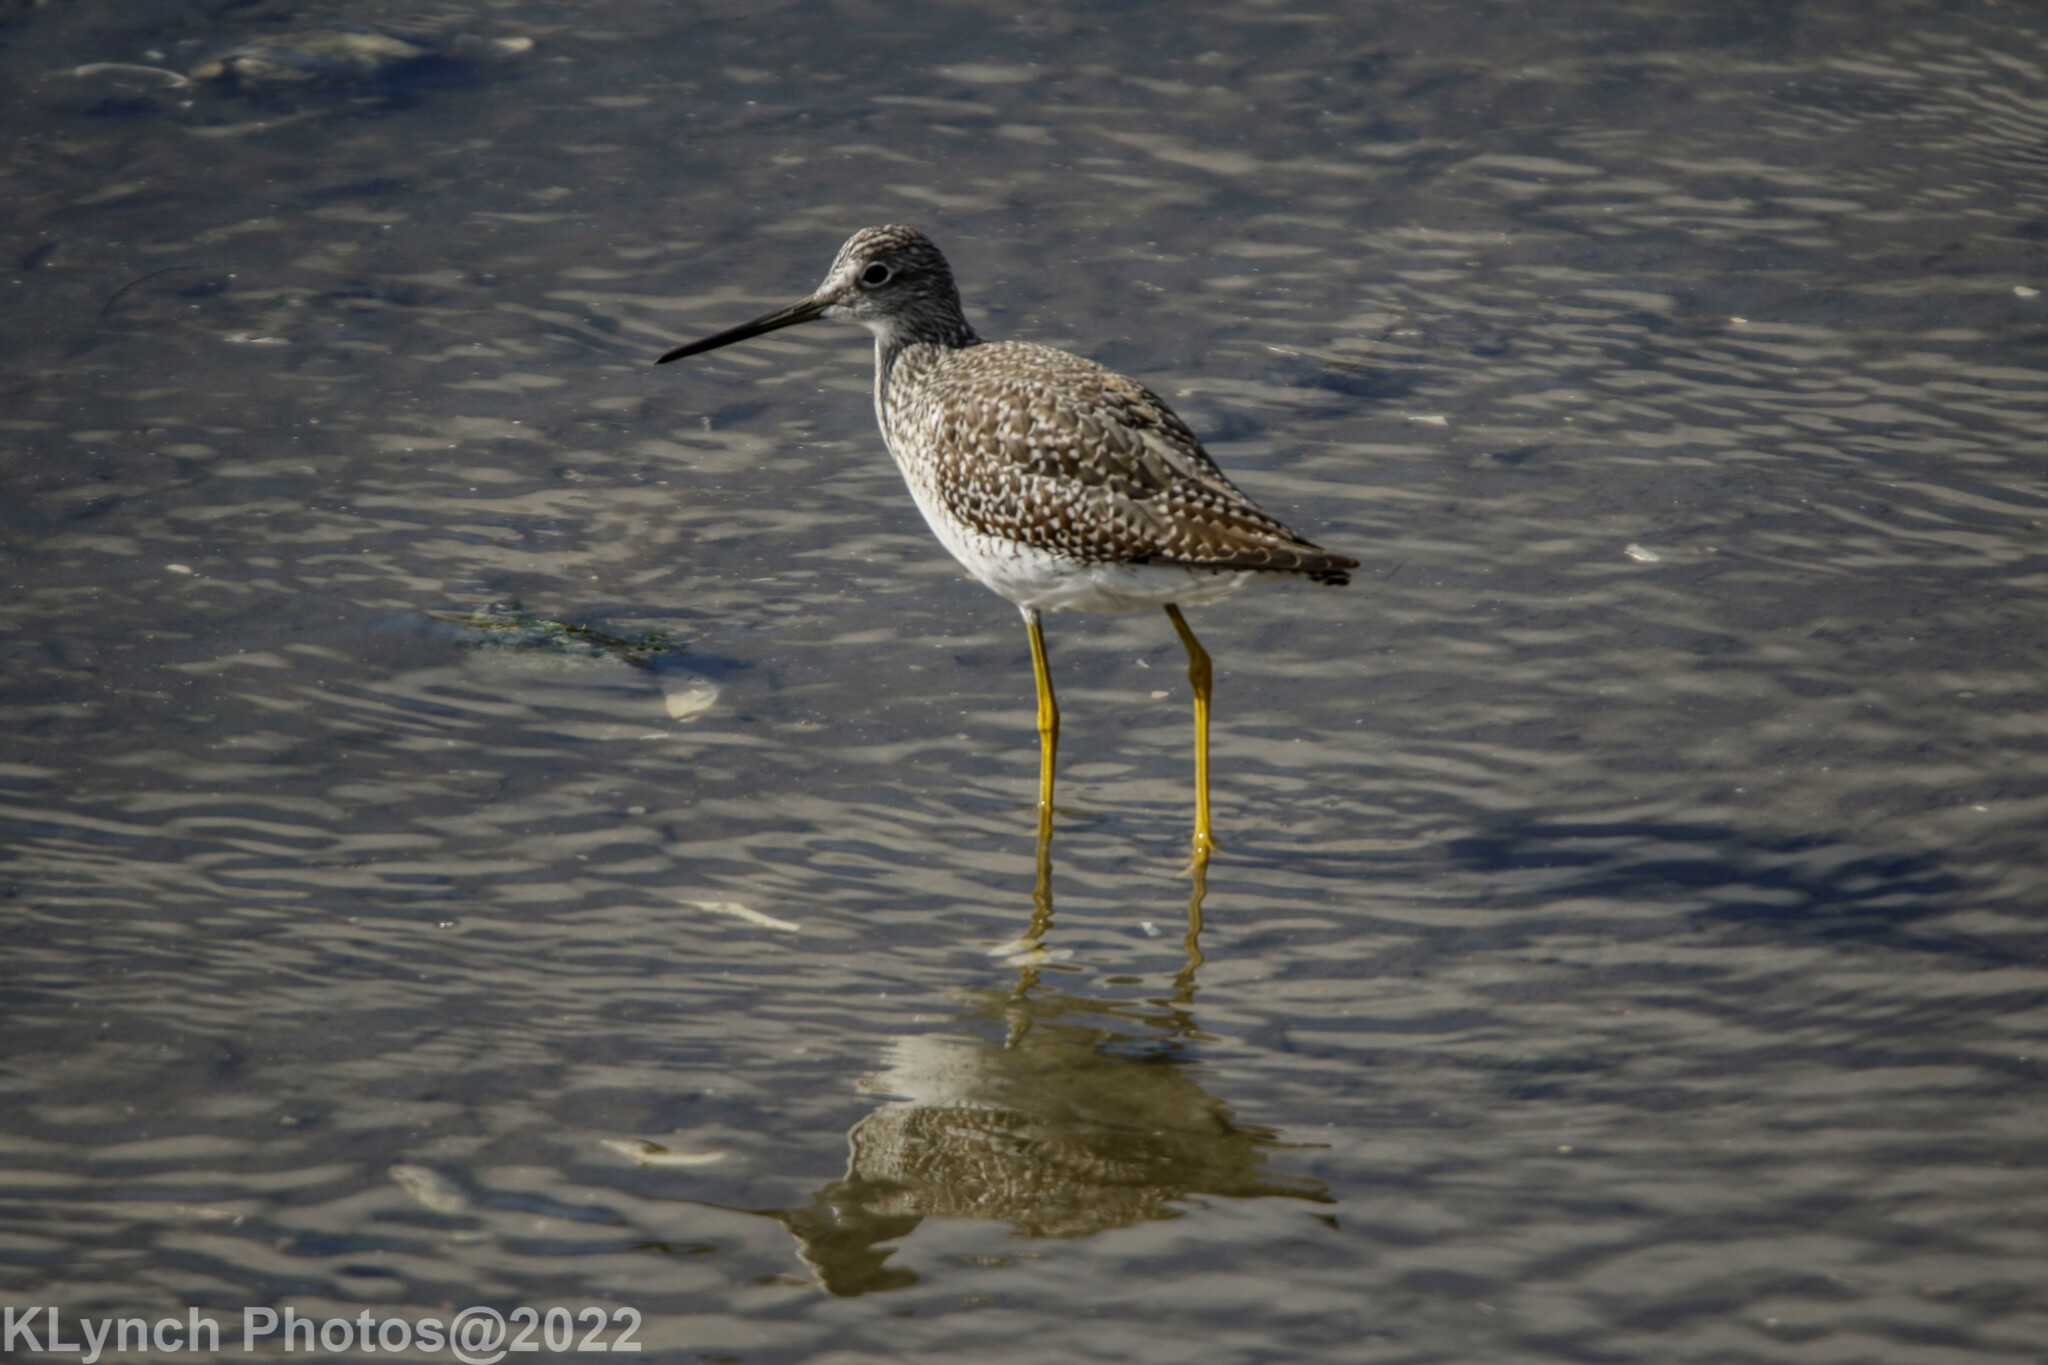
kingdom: Animalia
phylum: Chordata
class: Aves
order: Charadriiformes
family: Scolopacidae
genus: Tringa
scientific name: Tringa melanoleuca
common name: Greater yellowlegs
